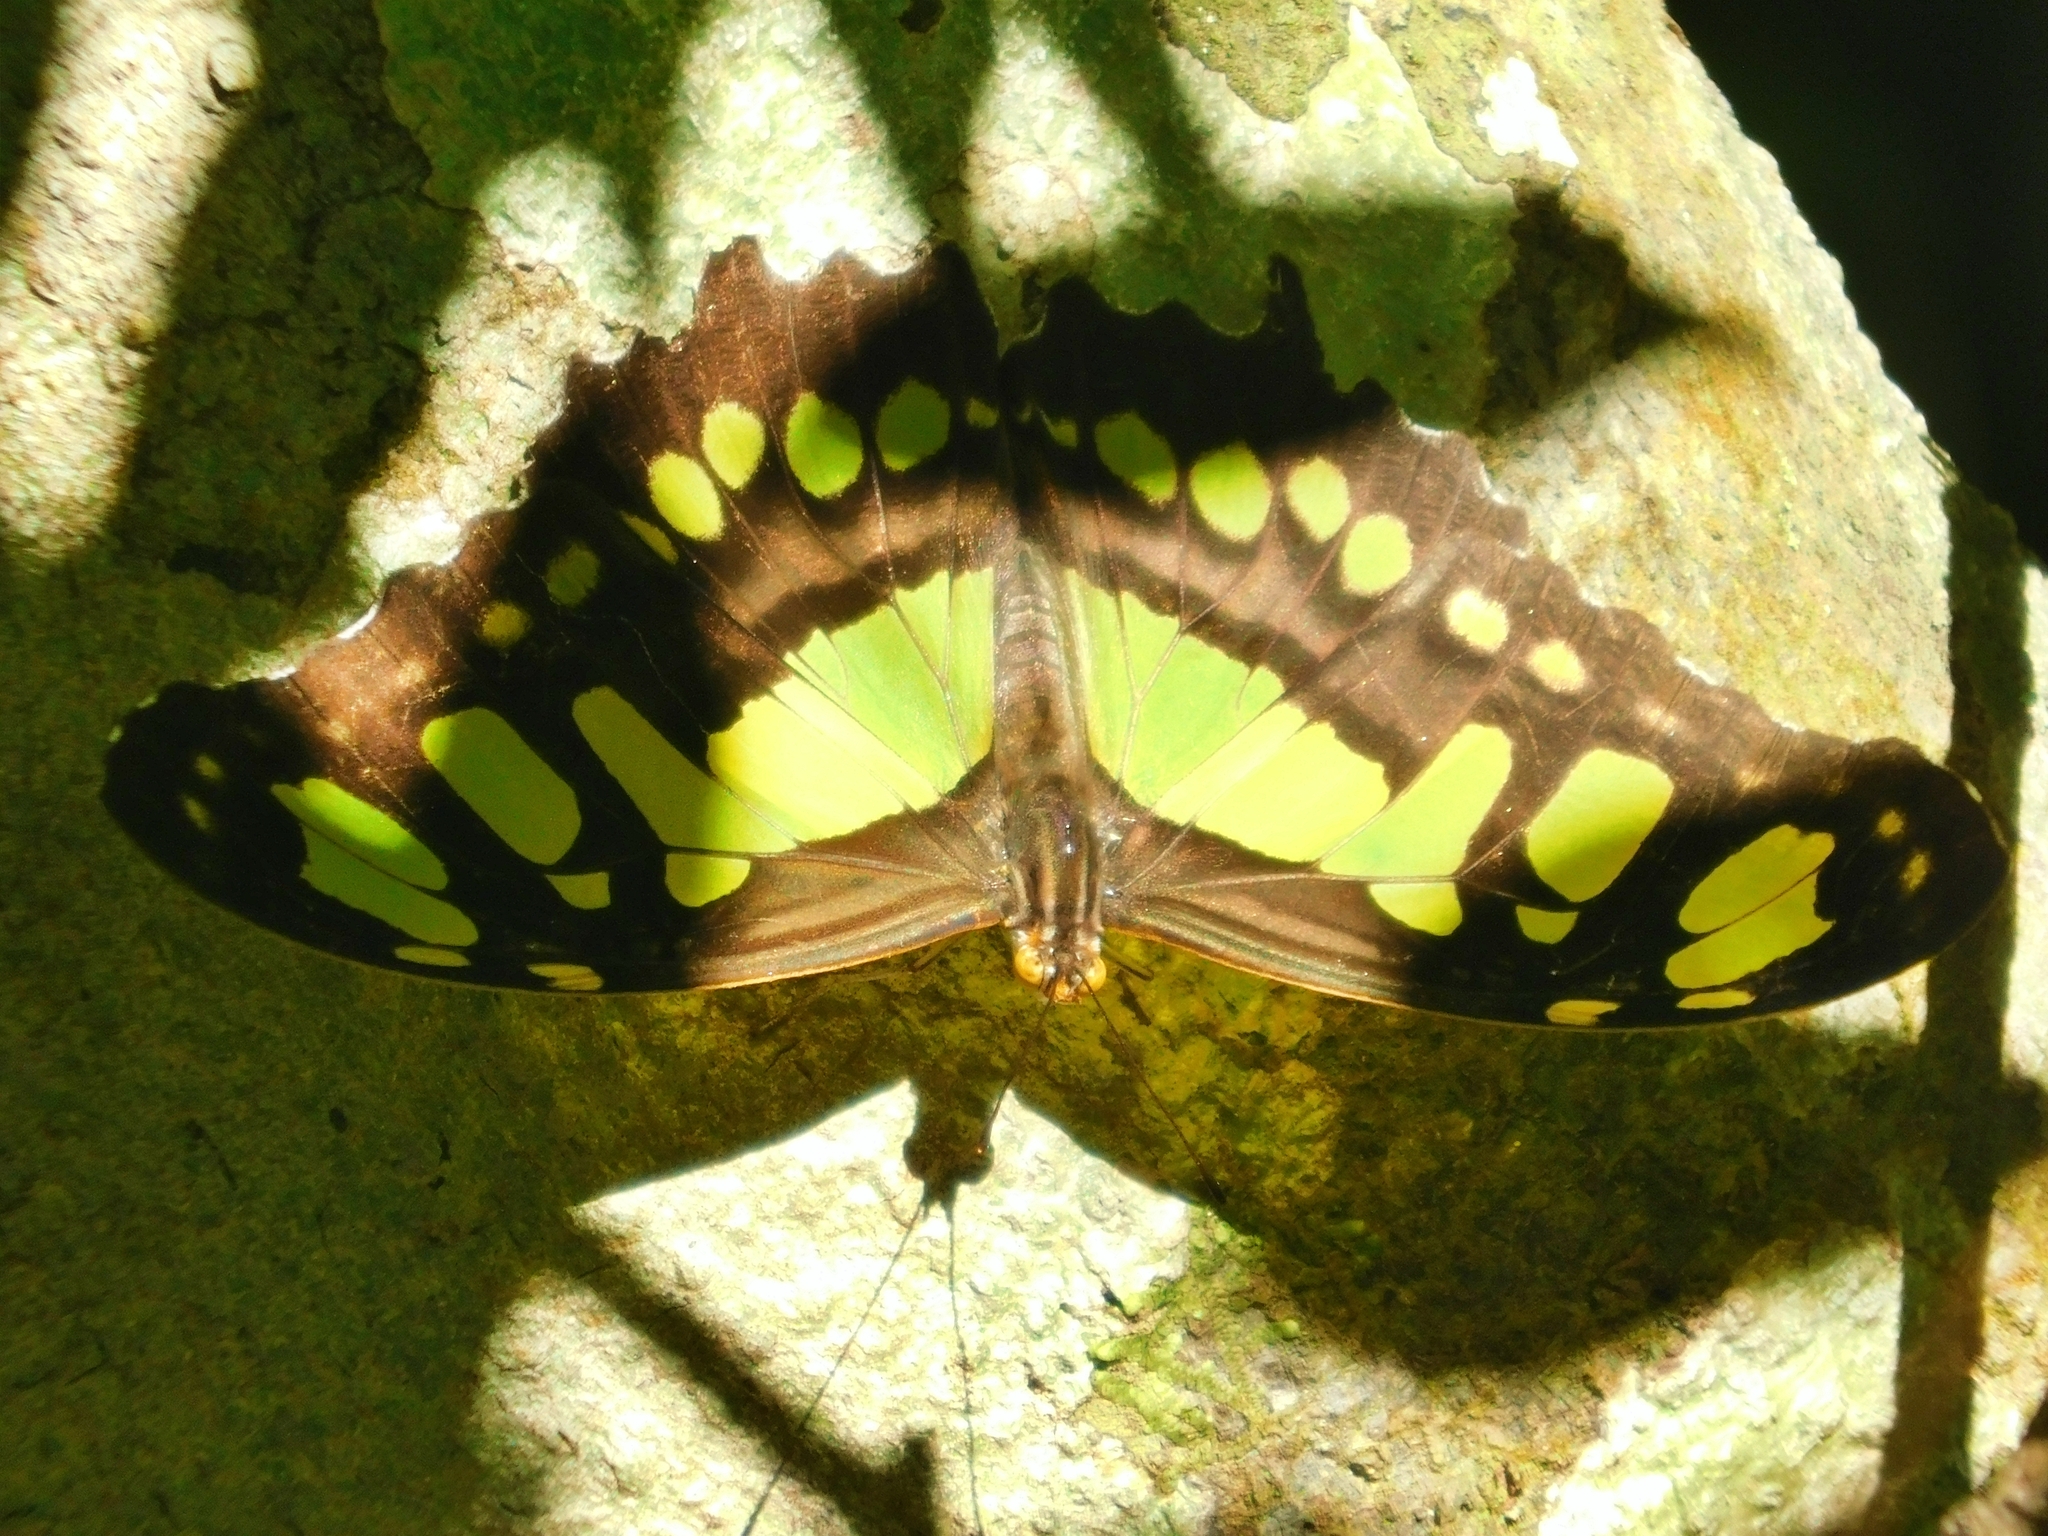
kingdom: Animalia
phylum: Arthropoda
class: Insecta
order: Lepidoptera
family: Nymphalidae
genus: Siproeta
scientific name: Siproeta stelenes
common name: Malachite
